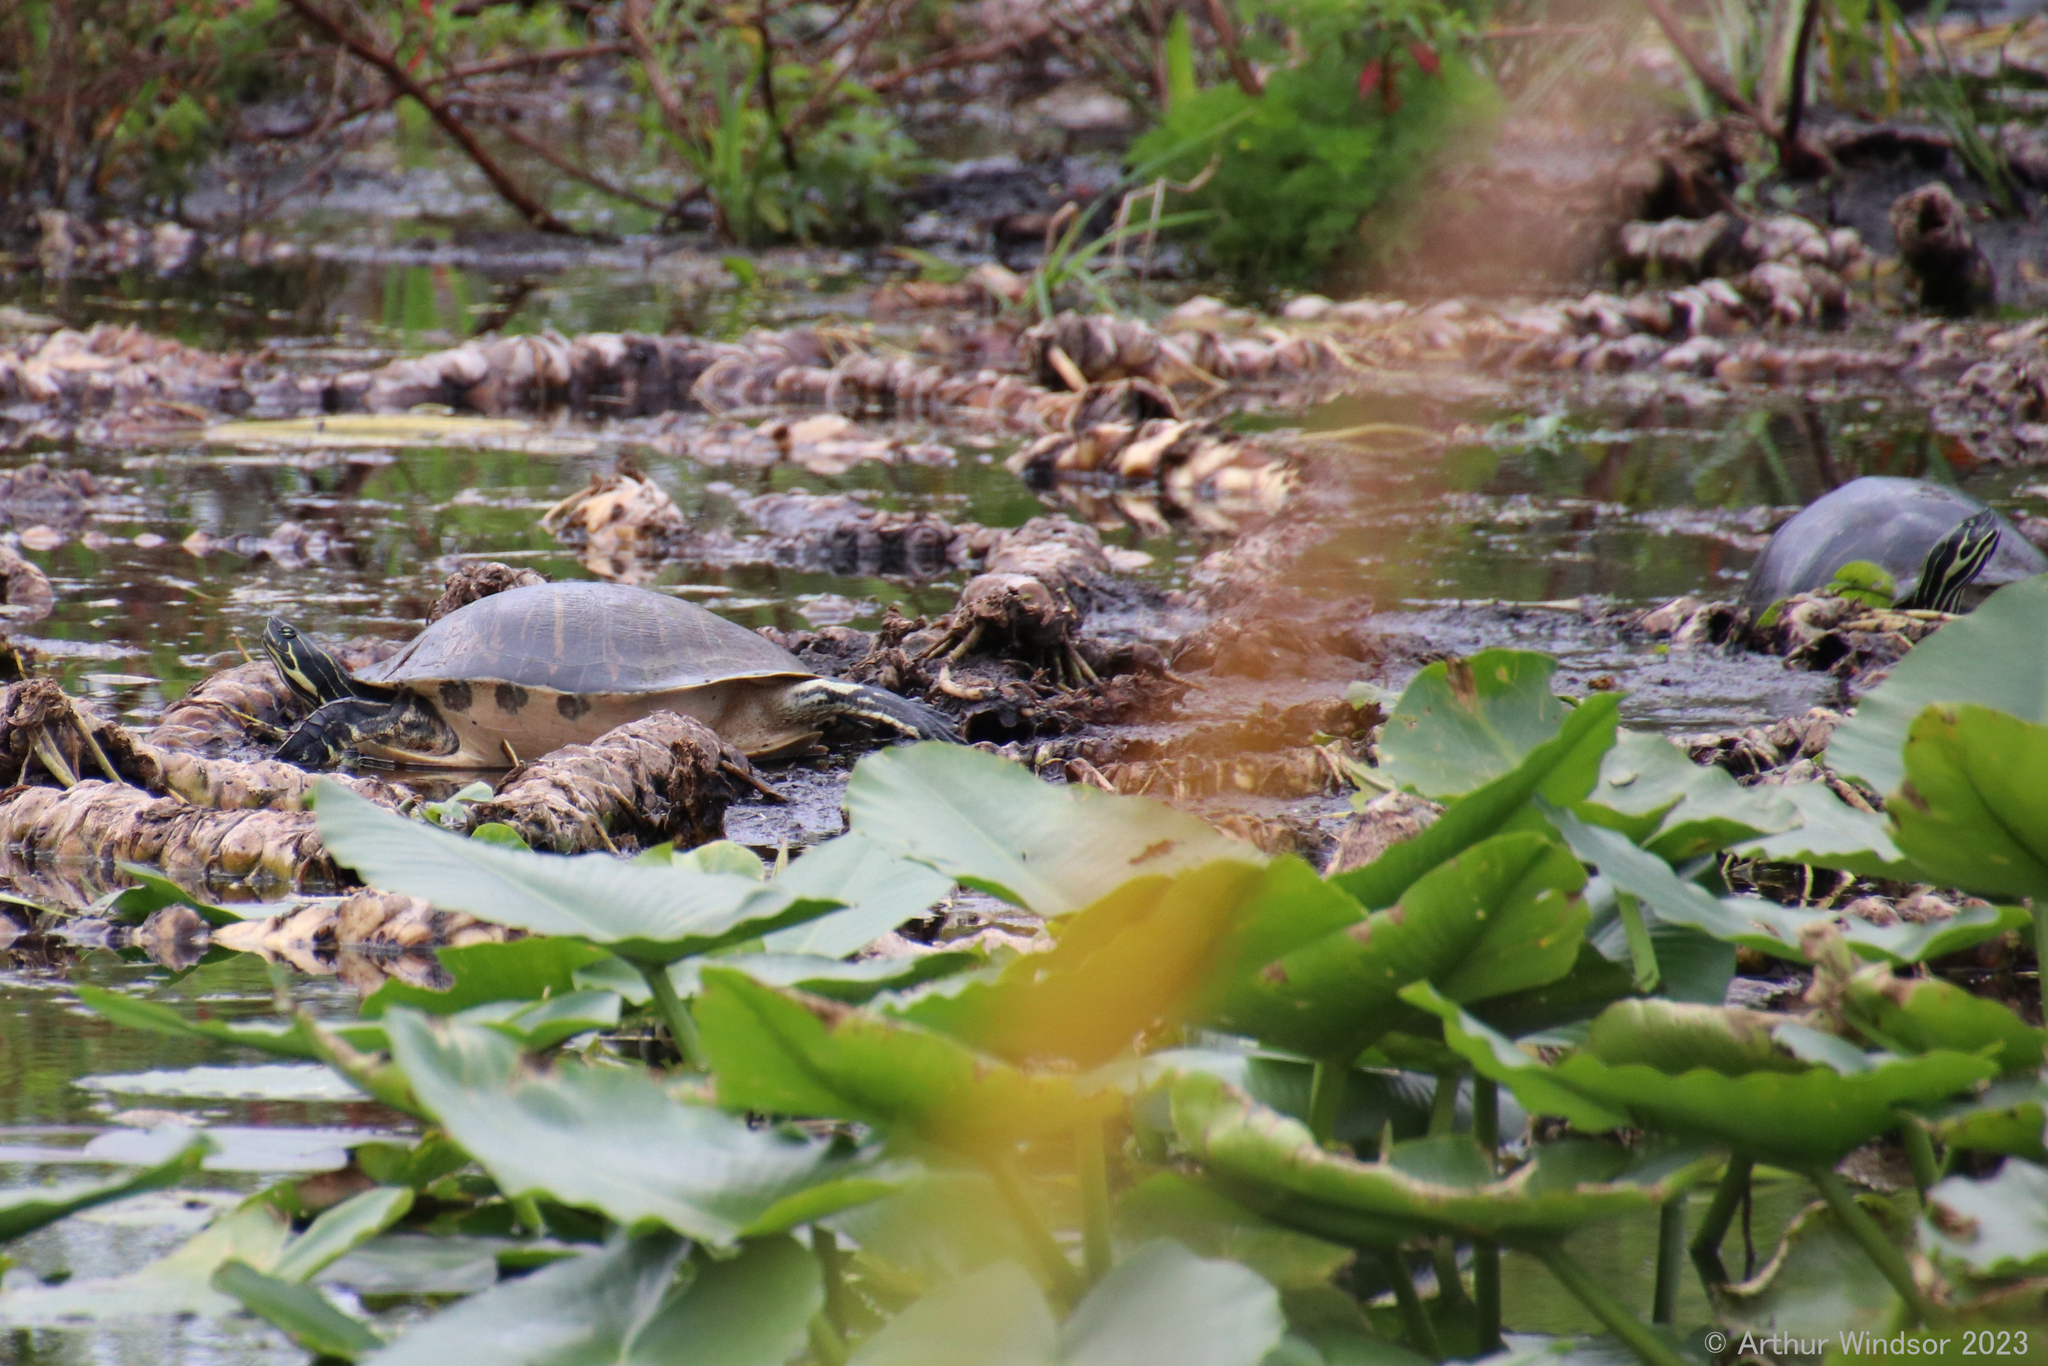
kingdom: Animalia
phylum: Chordata
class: Testudines
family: Emydidae
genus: Pseudemys
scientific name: Pseudemys peninsularis
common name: Peninsula cooter
